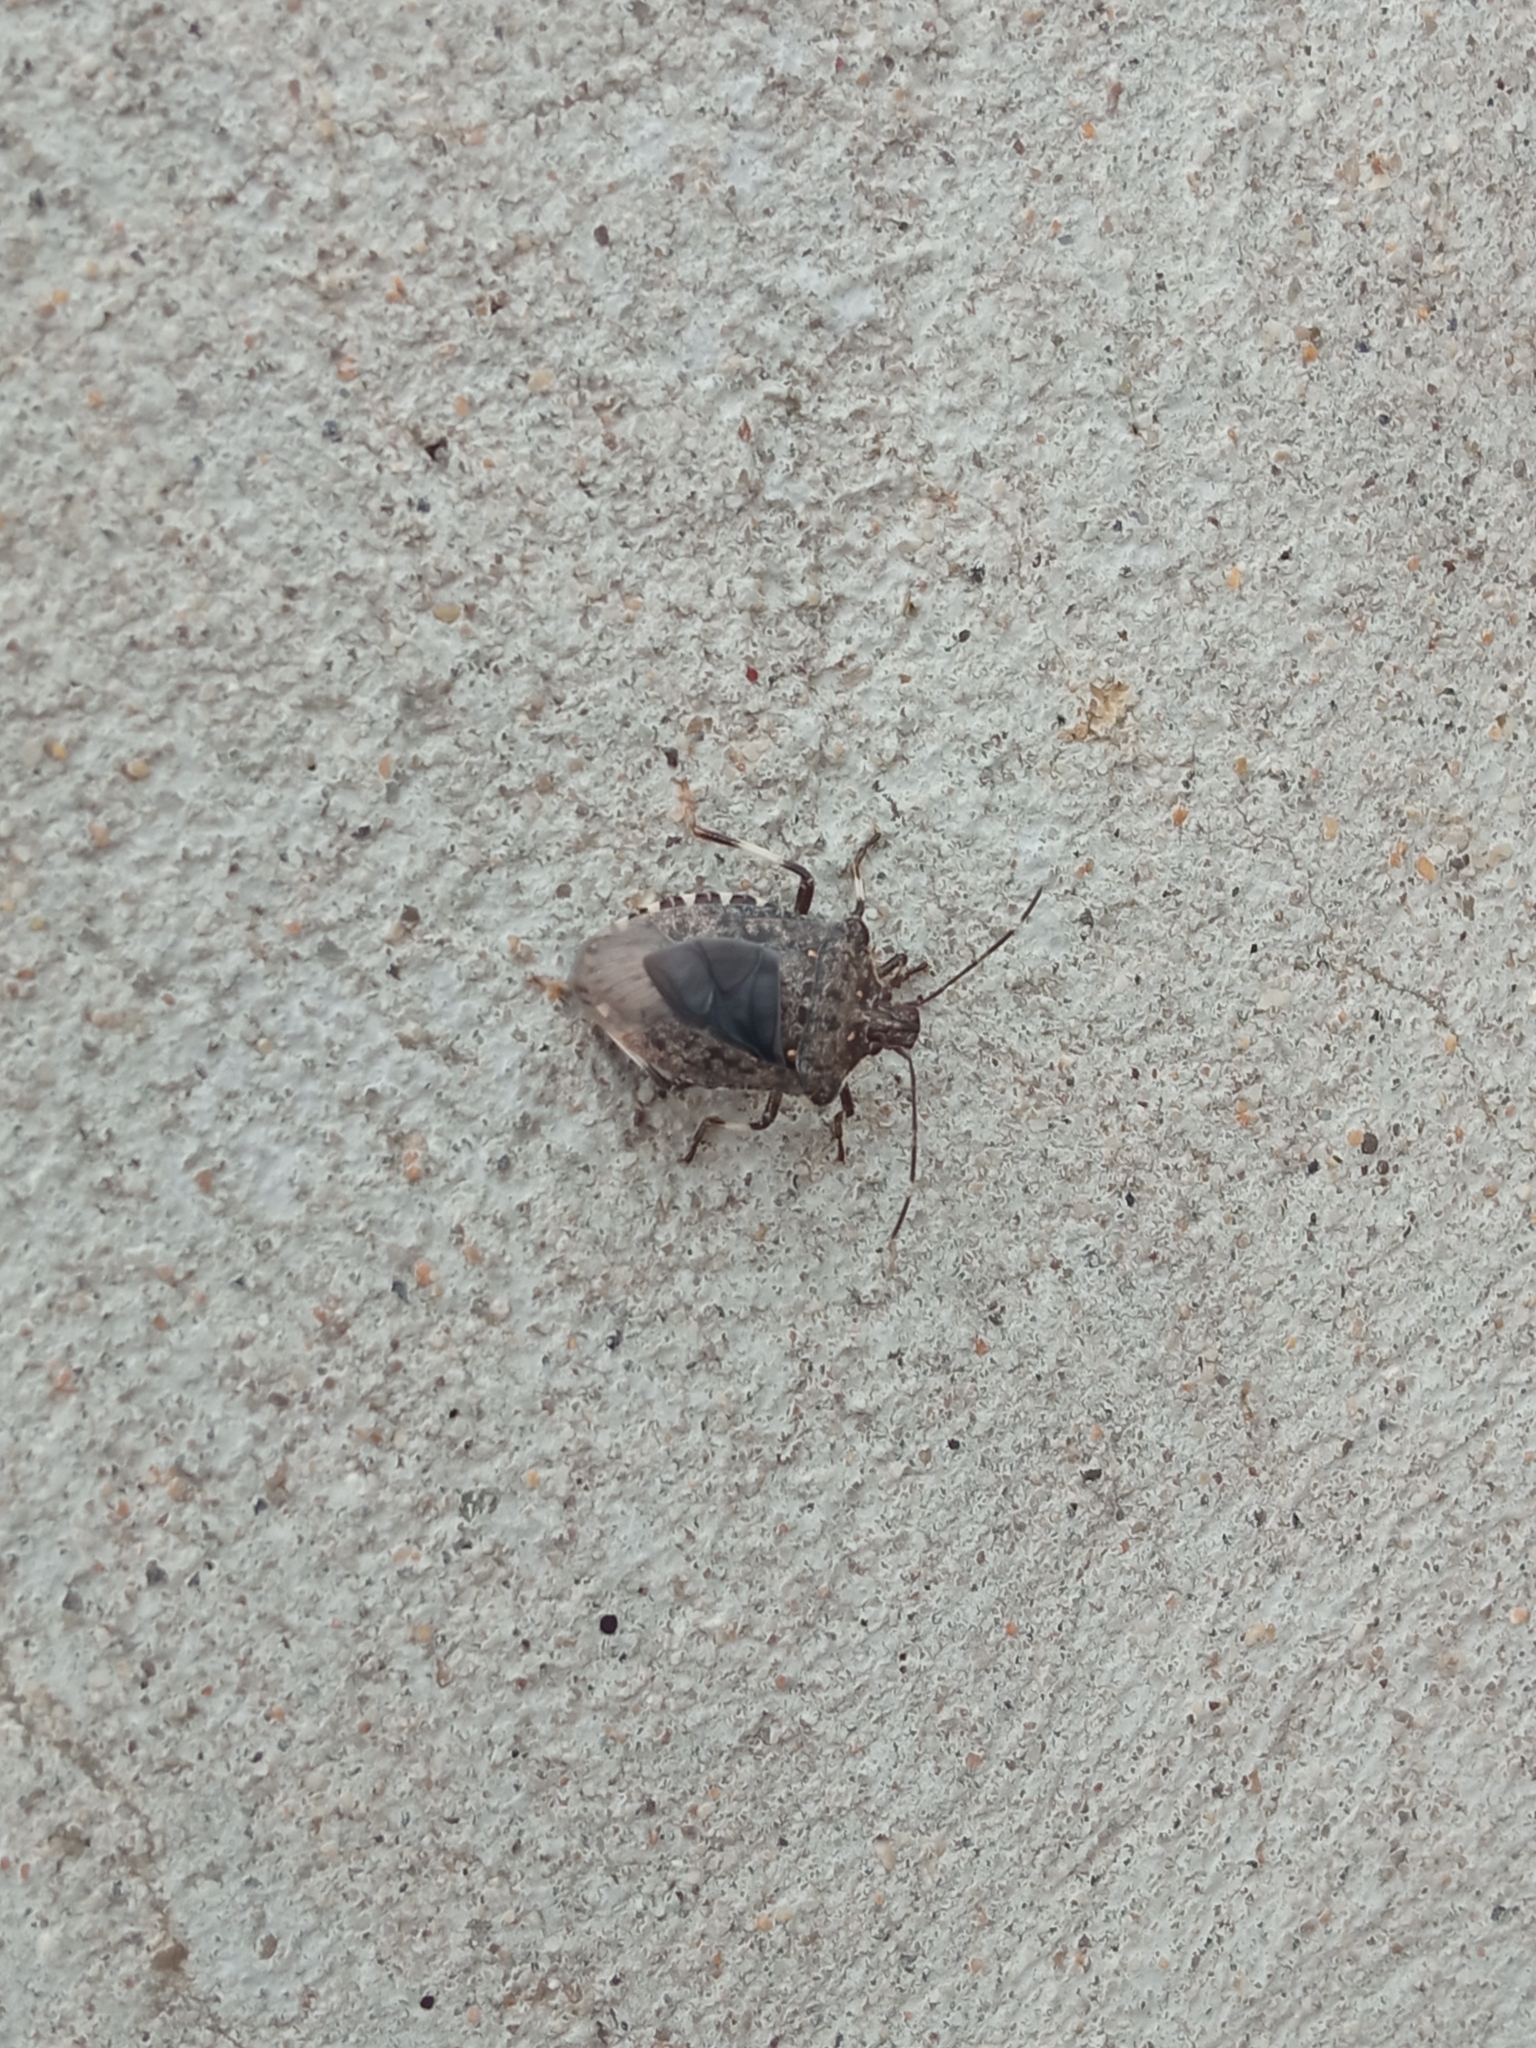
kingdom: Animalia
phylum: Arthropoda
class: Insecta
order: Hemiptera
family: Pentatomidae
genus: Halyomorpha
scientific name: Halyomorpha halys
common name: Brown marmorated stink bug
